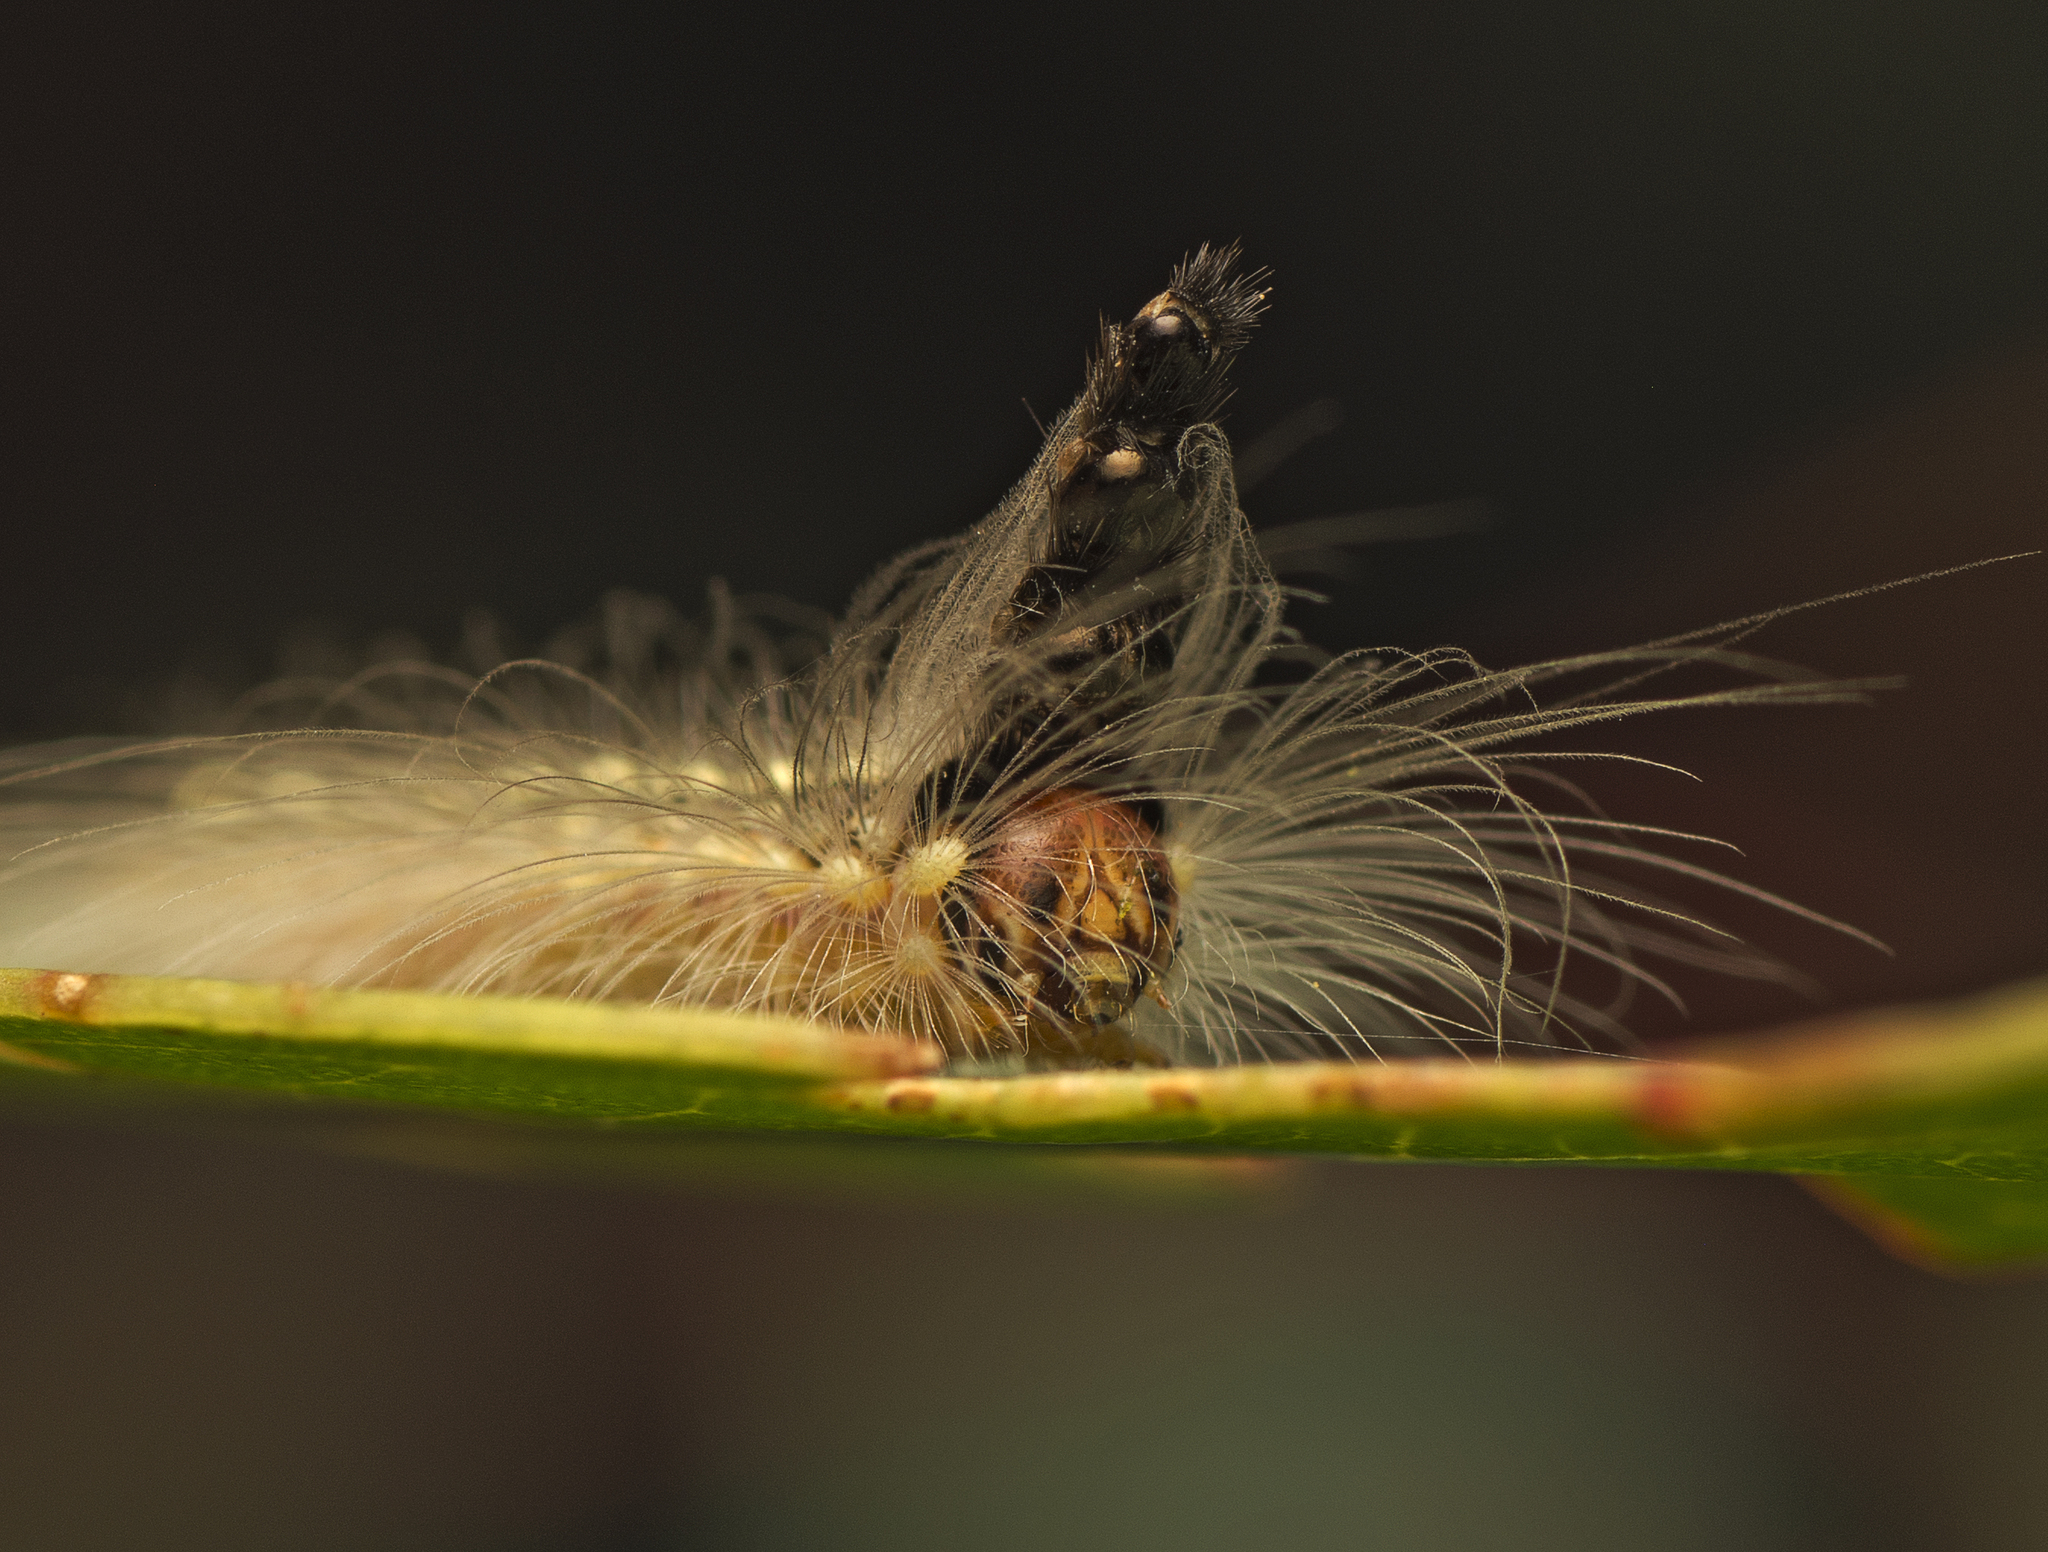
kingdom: Animalia
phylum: Arthropoda
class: Insecta
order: Lepidoptera
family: Nolidae
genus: Uraba
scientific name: Uraba lugens
